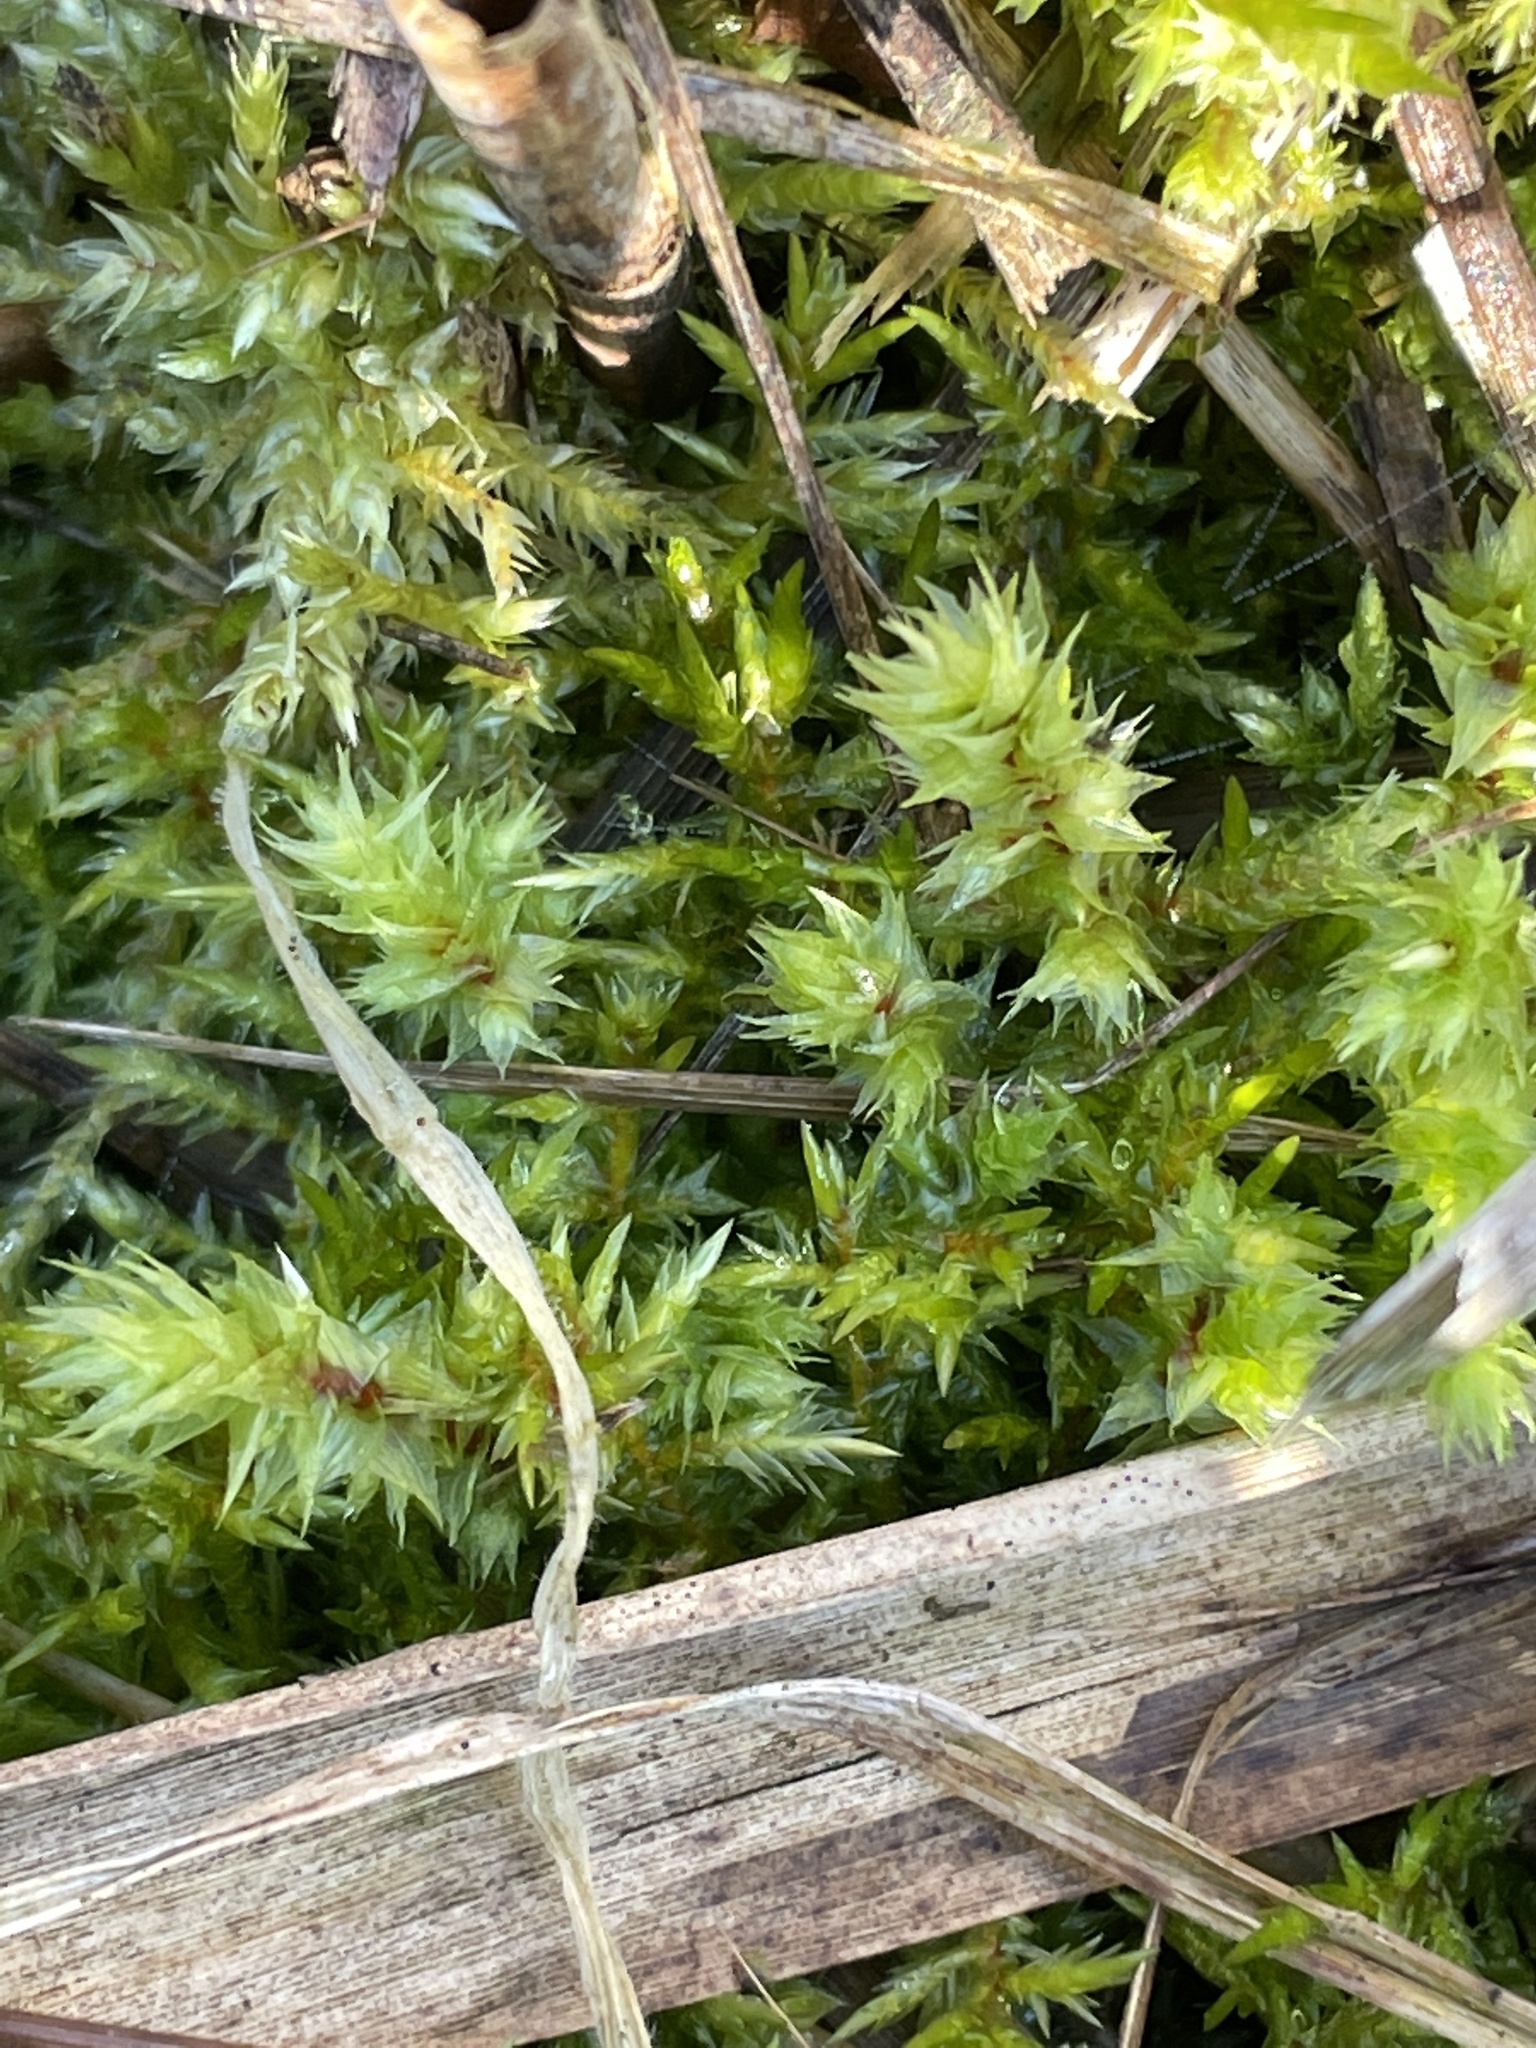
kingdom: Plantae
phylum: Bryophyta
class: Bryopsida
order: Hypnales
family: Hylocomiaceae
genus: Hylocomiadelphus
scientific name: Hylocomiadelphus triquetrus
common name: Rough goose neck moss
